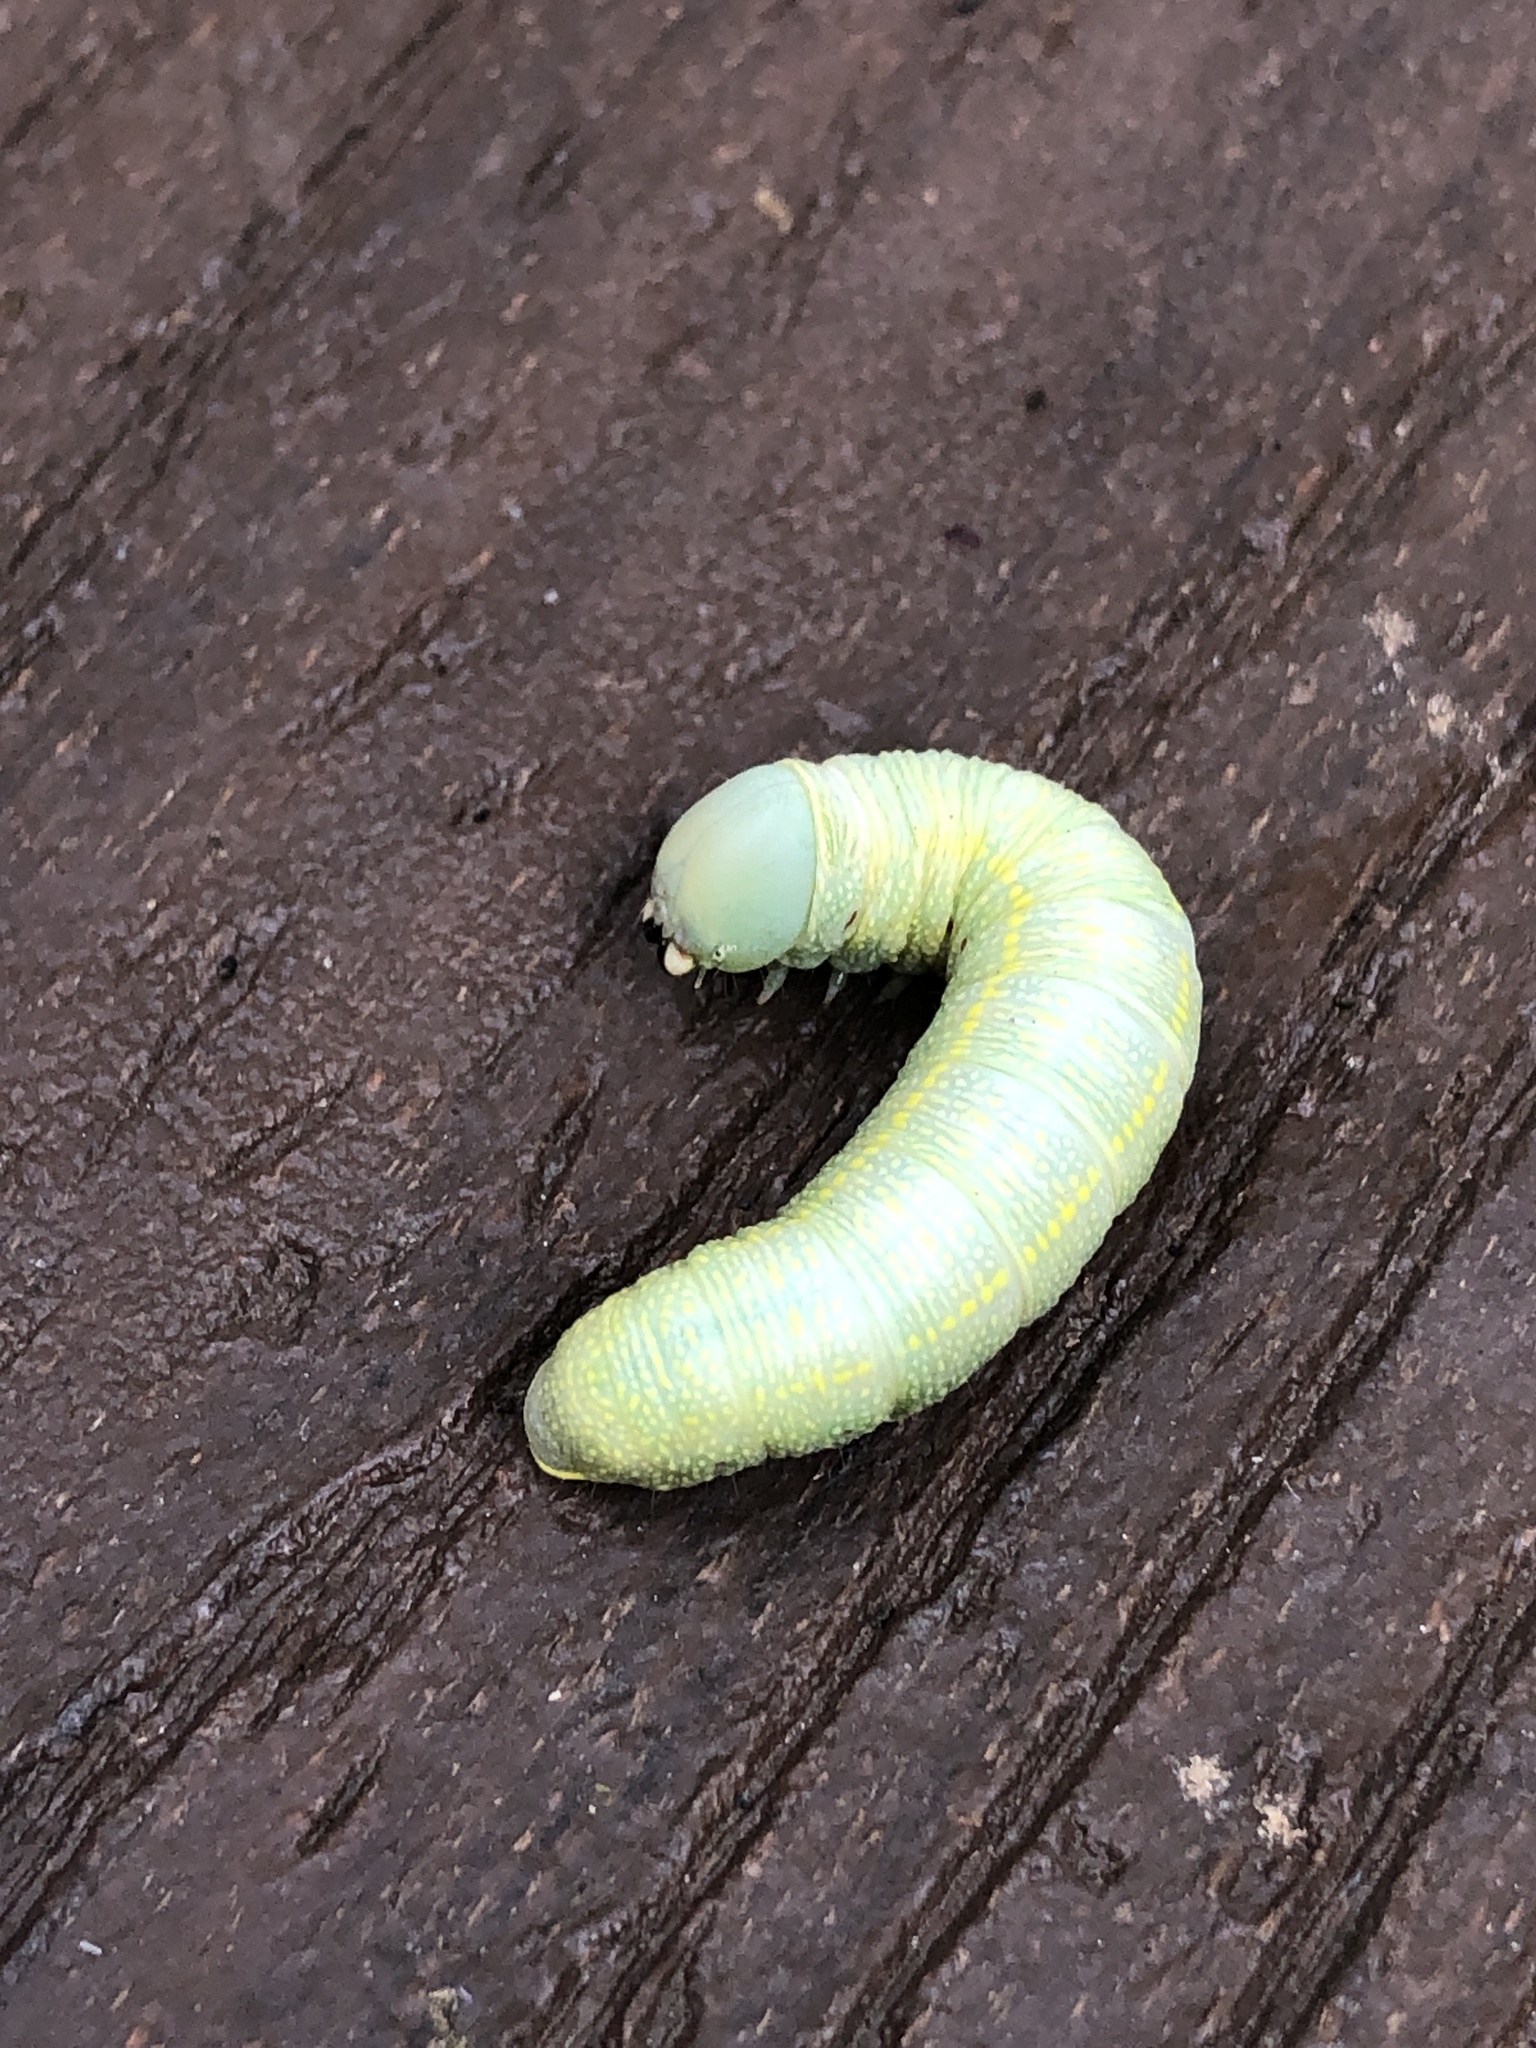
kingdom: Animalia
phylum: Arthropoda
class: Insecta
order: Lepidoptera
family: Notodontidae
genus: Nadata
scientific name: Nadata gibbosa
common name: White-dotted prominent
